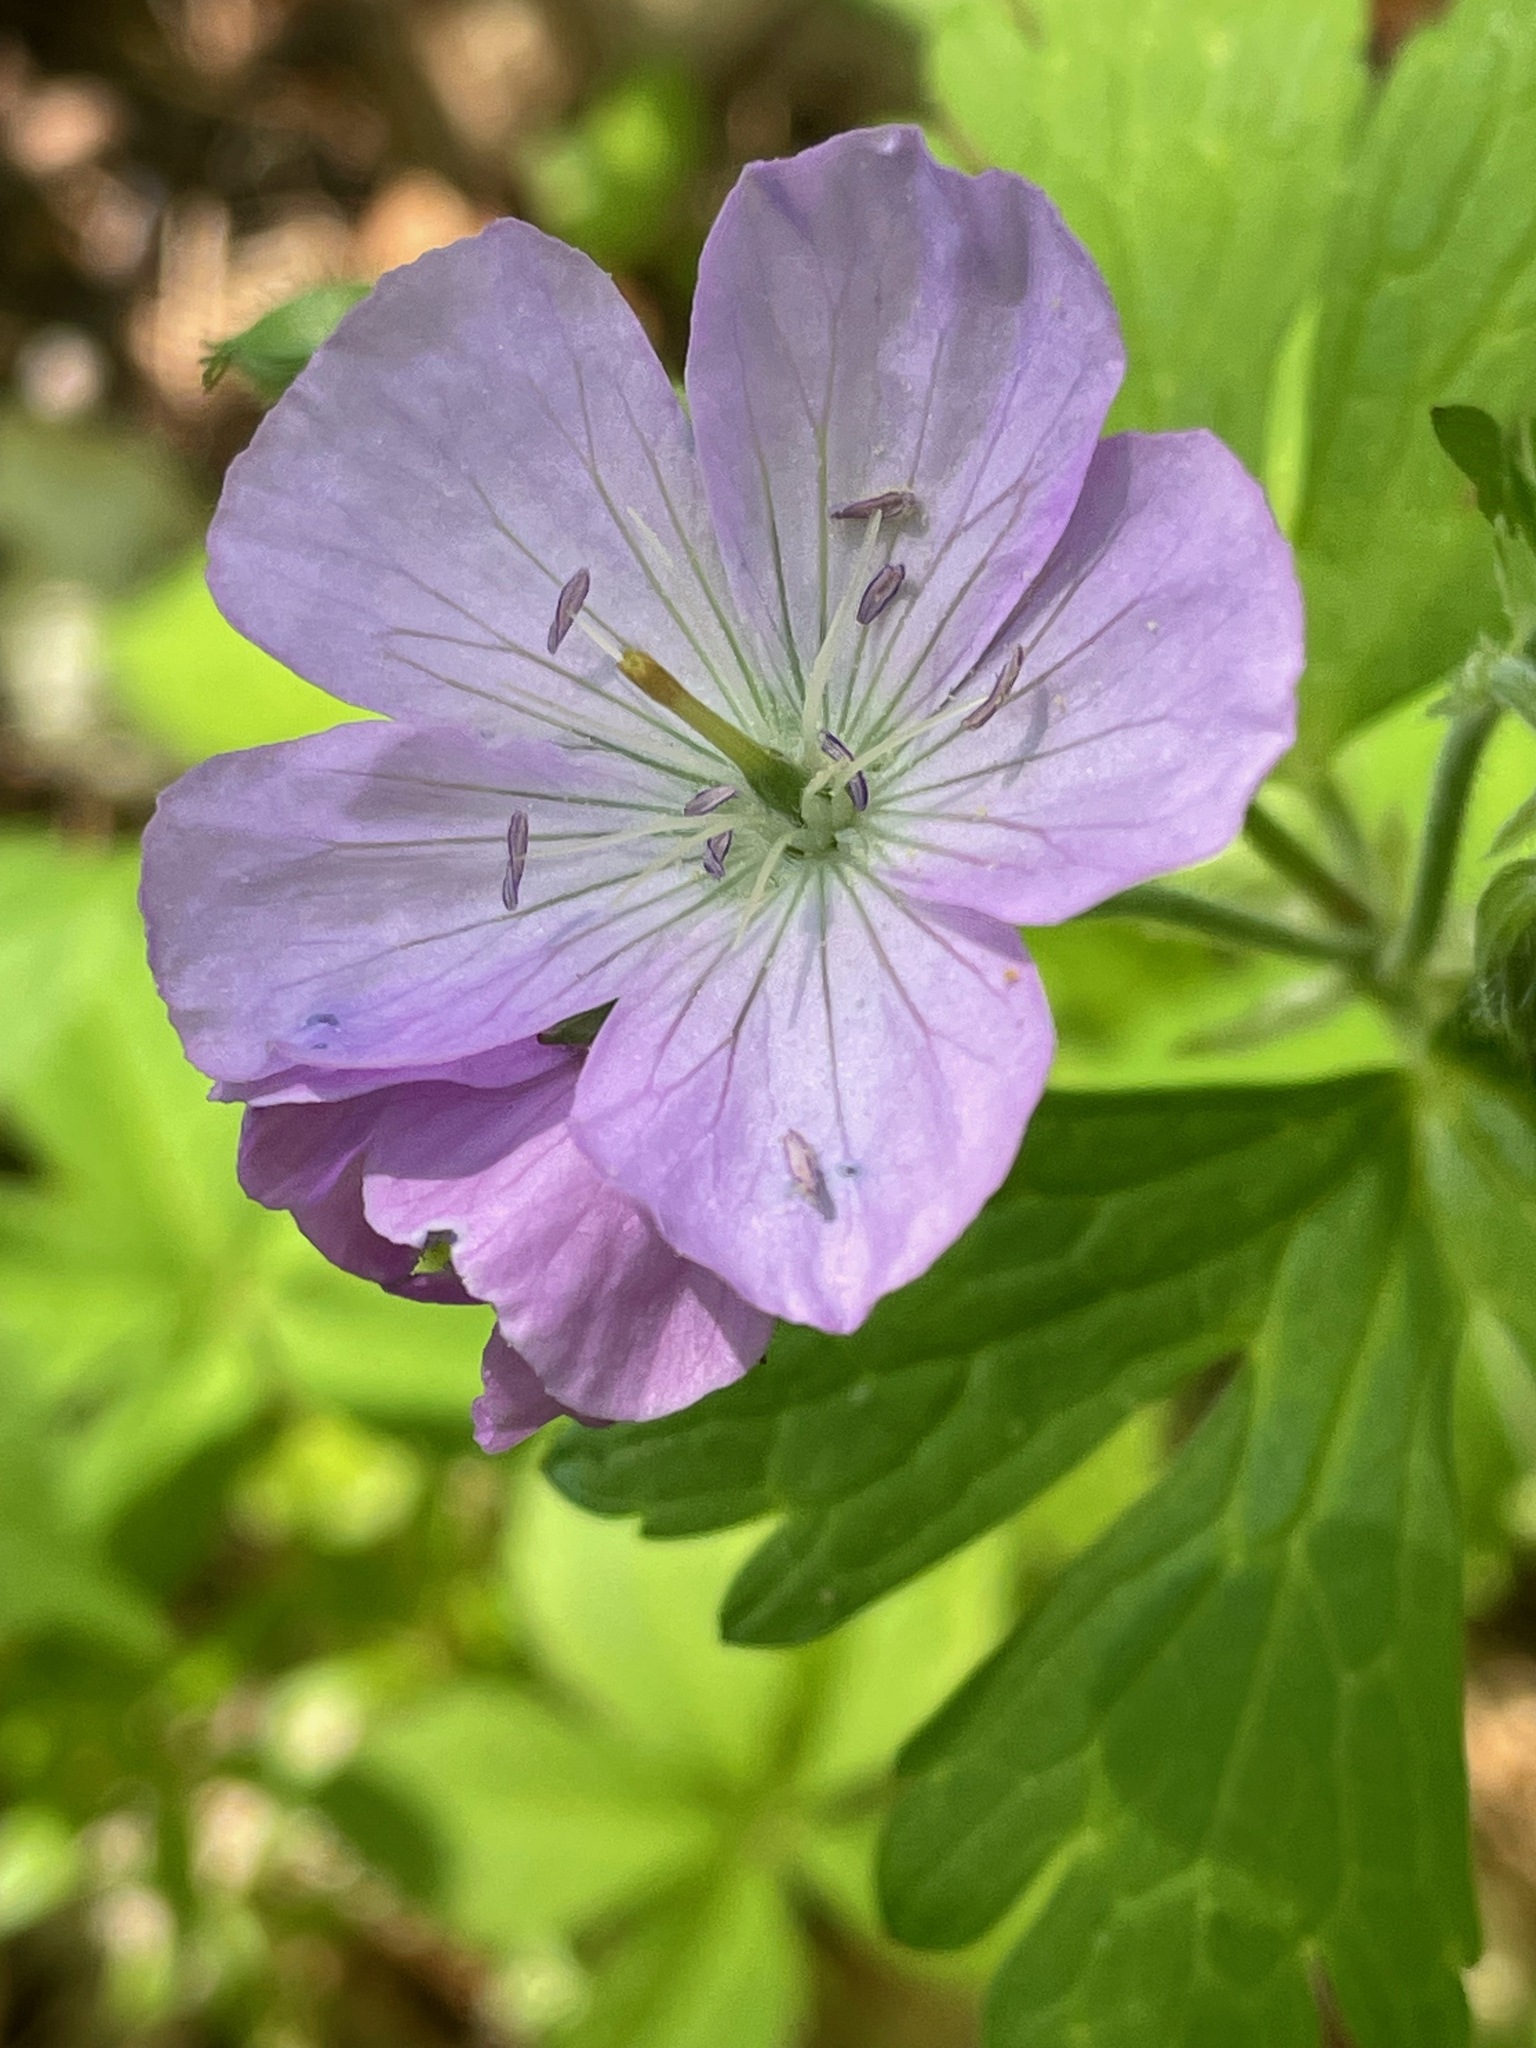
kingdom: Plantae
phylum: Tracheophyta
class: Magnoliopsida
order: Geraniales
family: Geraniaceae
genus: Geranium
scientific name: Geranium maculatum
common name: Spotted geranium
